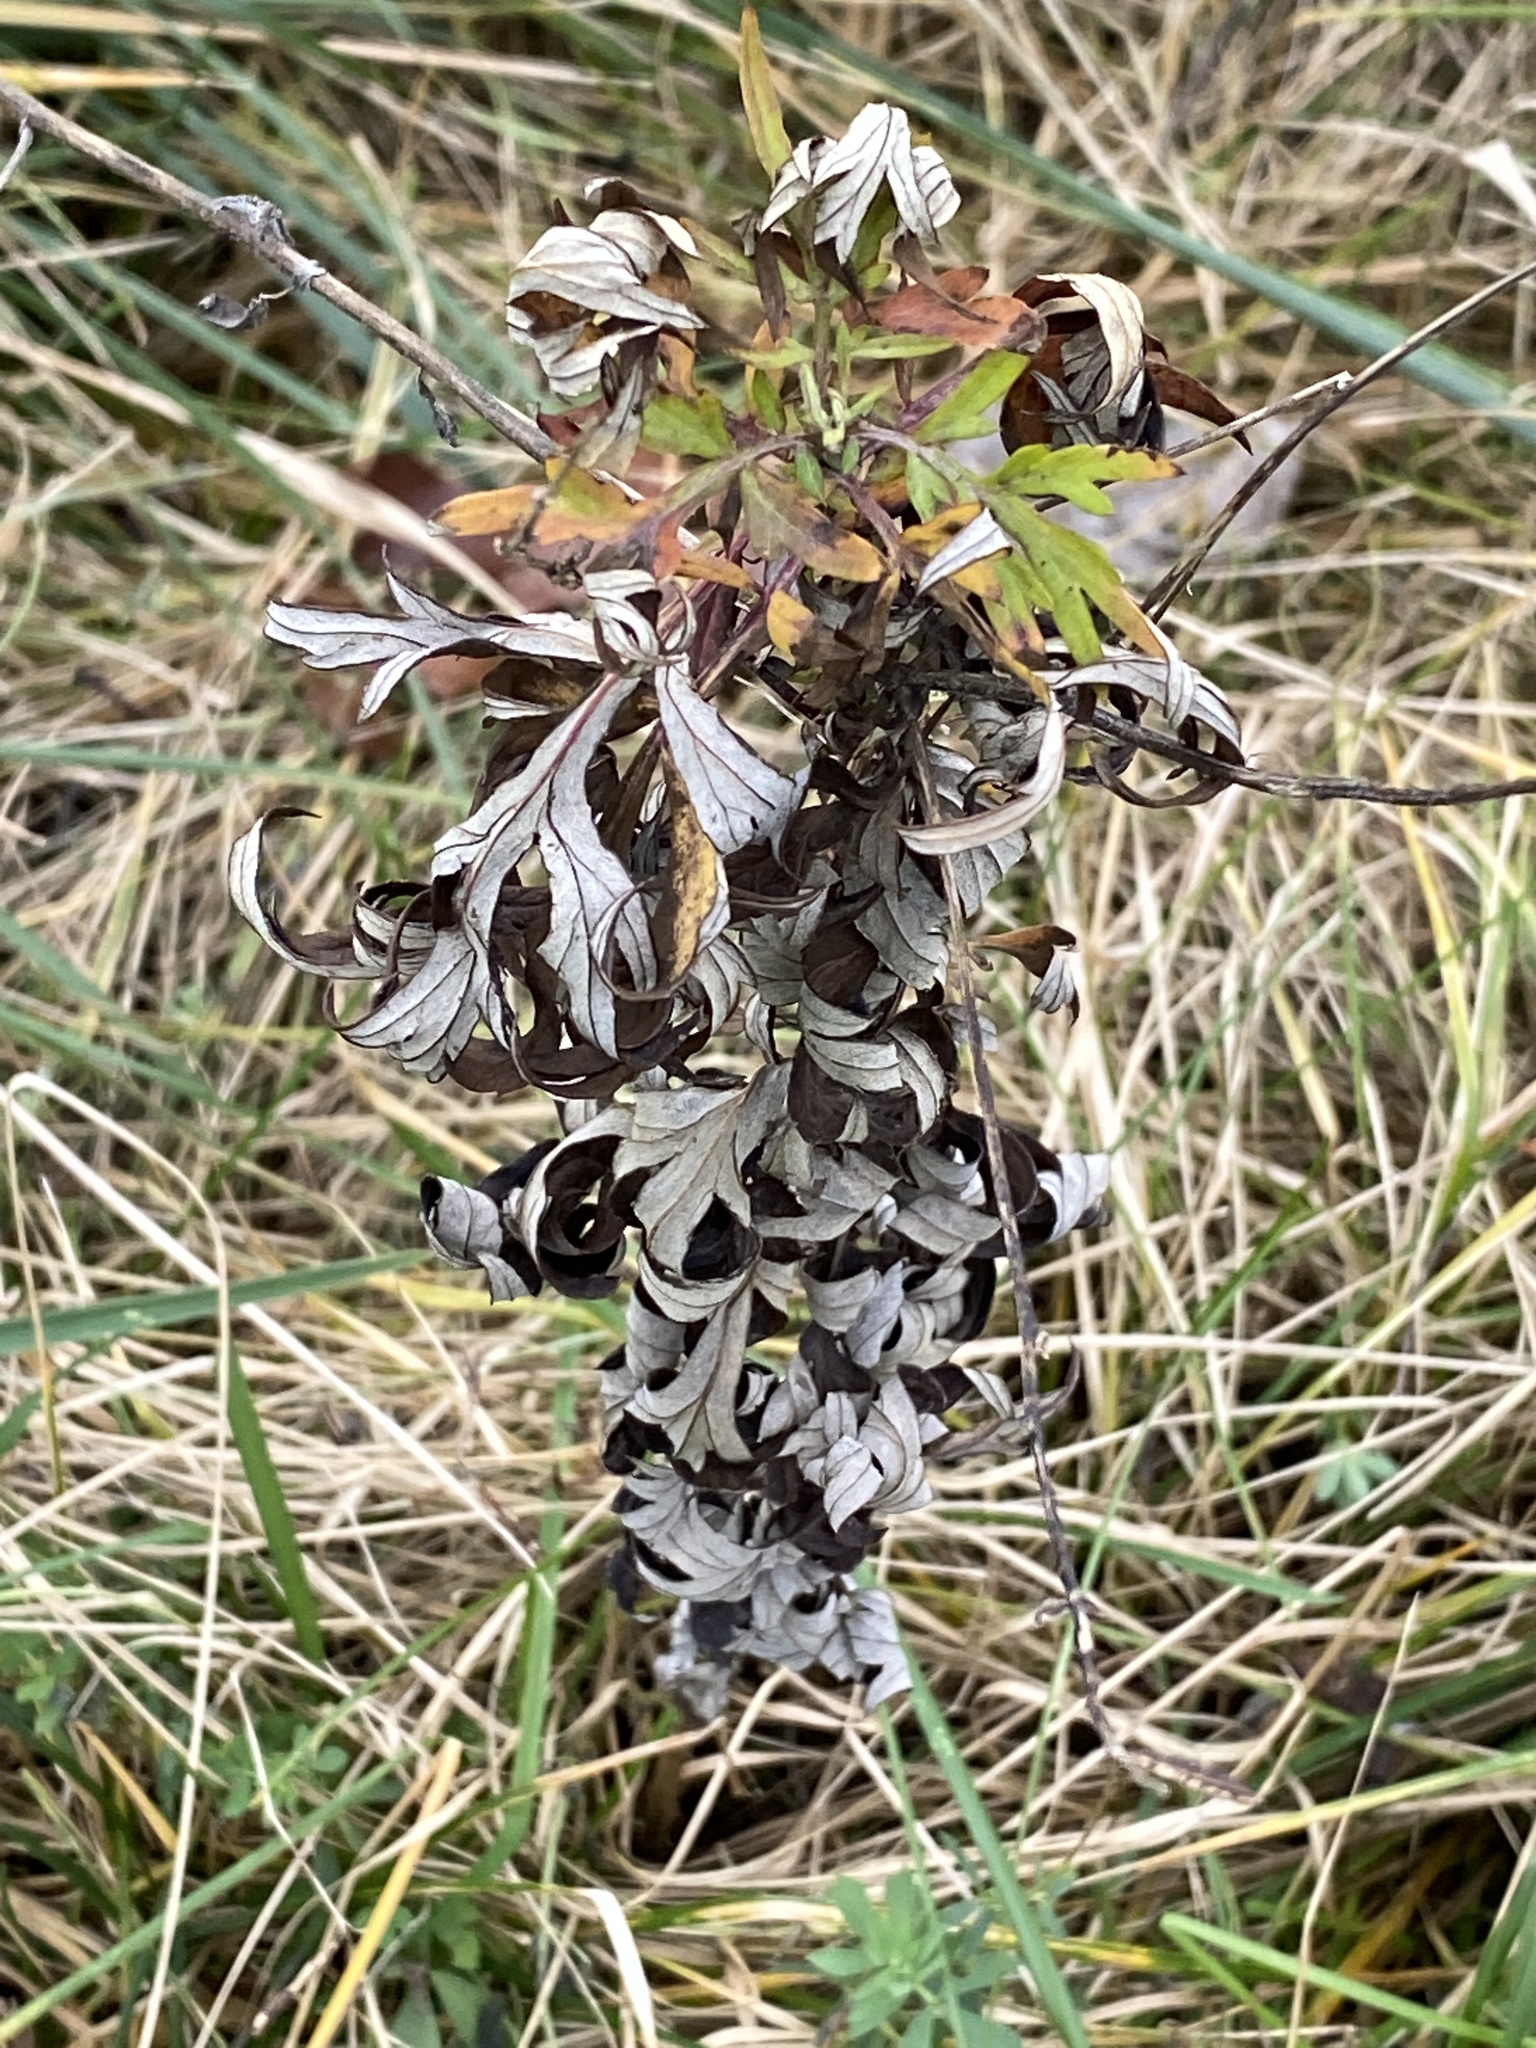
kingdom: Plantae
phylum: Tracheophyta
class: Magnoliopsida
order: Asterales
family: Asteraceae
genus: Artemisia
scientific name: Artemisia vulgaris
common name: Mugwort
